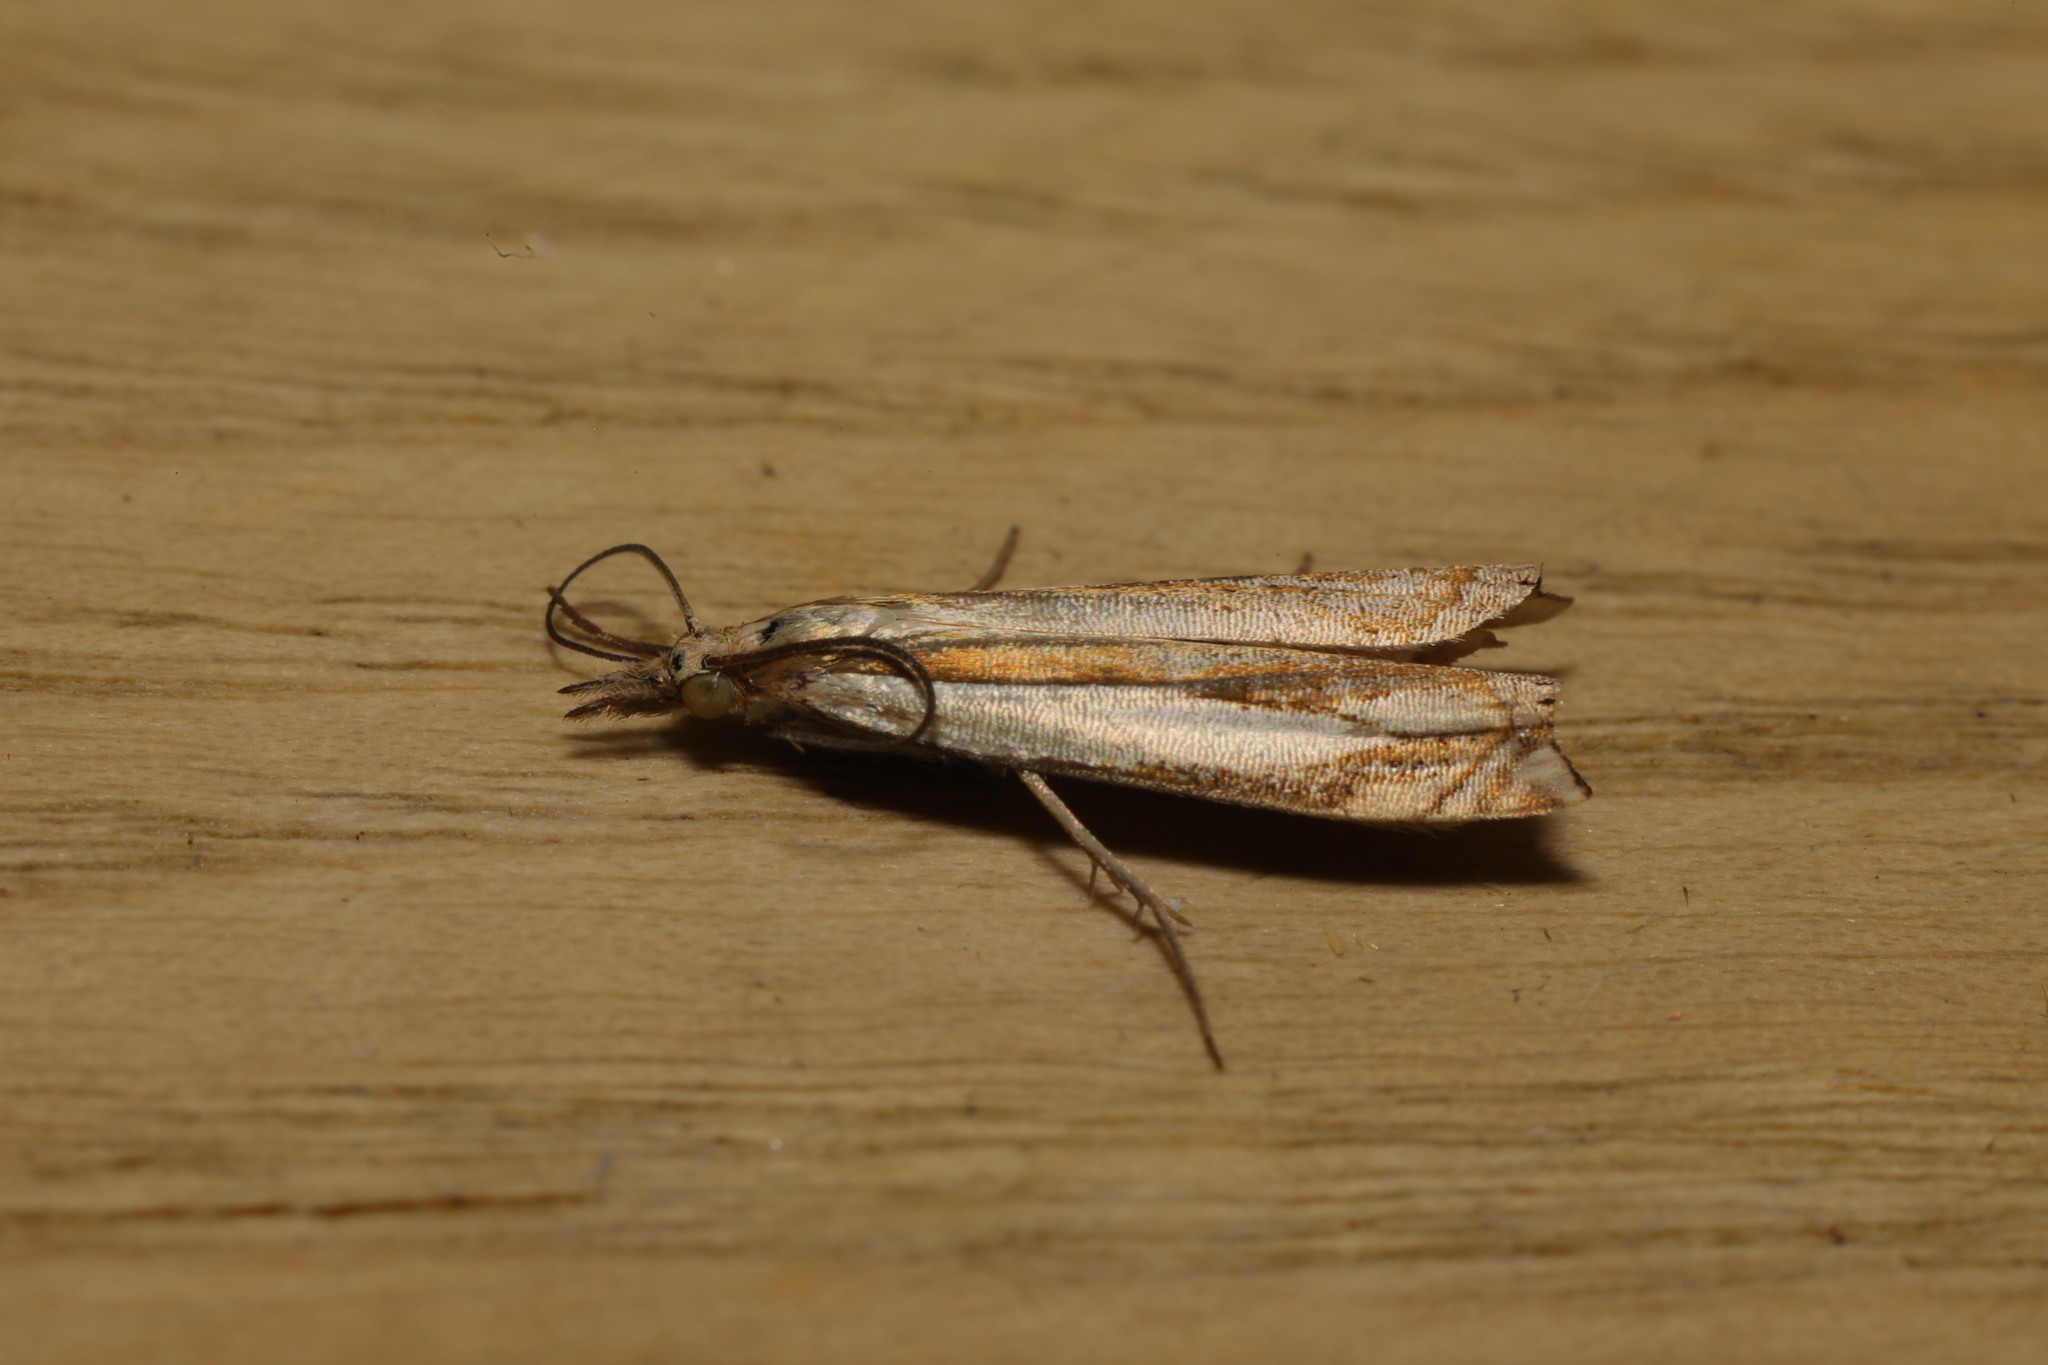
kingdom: Animalia
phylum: Arthropoda
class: Insecta
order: Lepidoptera
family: Crambidae
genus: Crambus
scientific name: Crambus pascuella
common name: Inlaid grass-veneer
